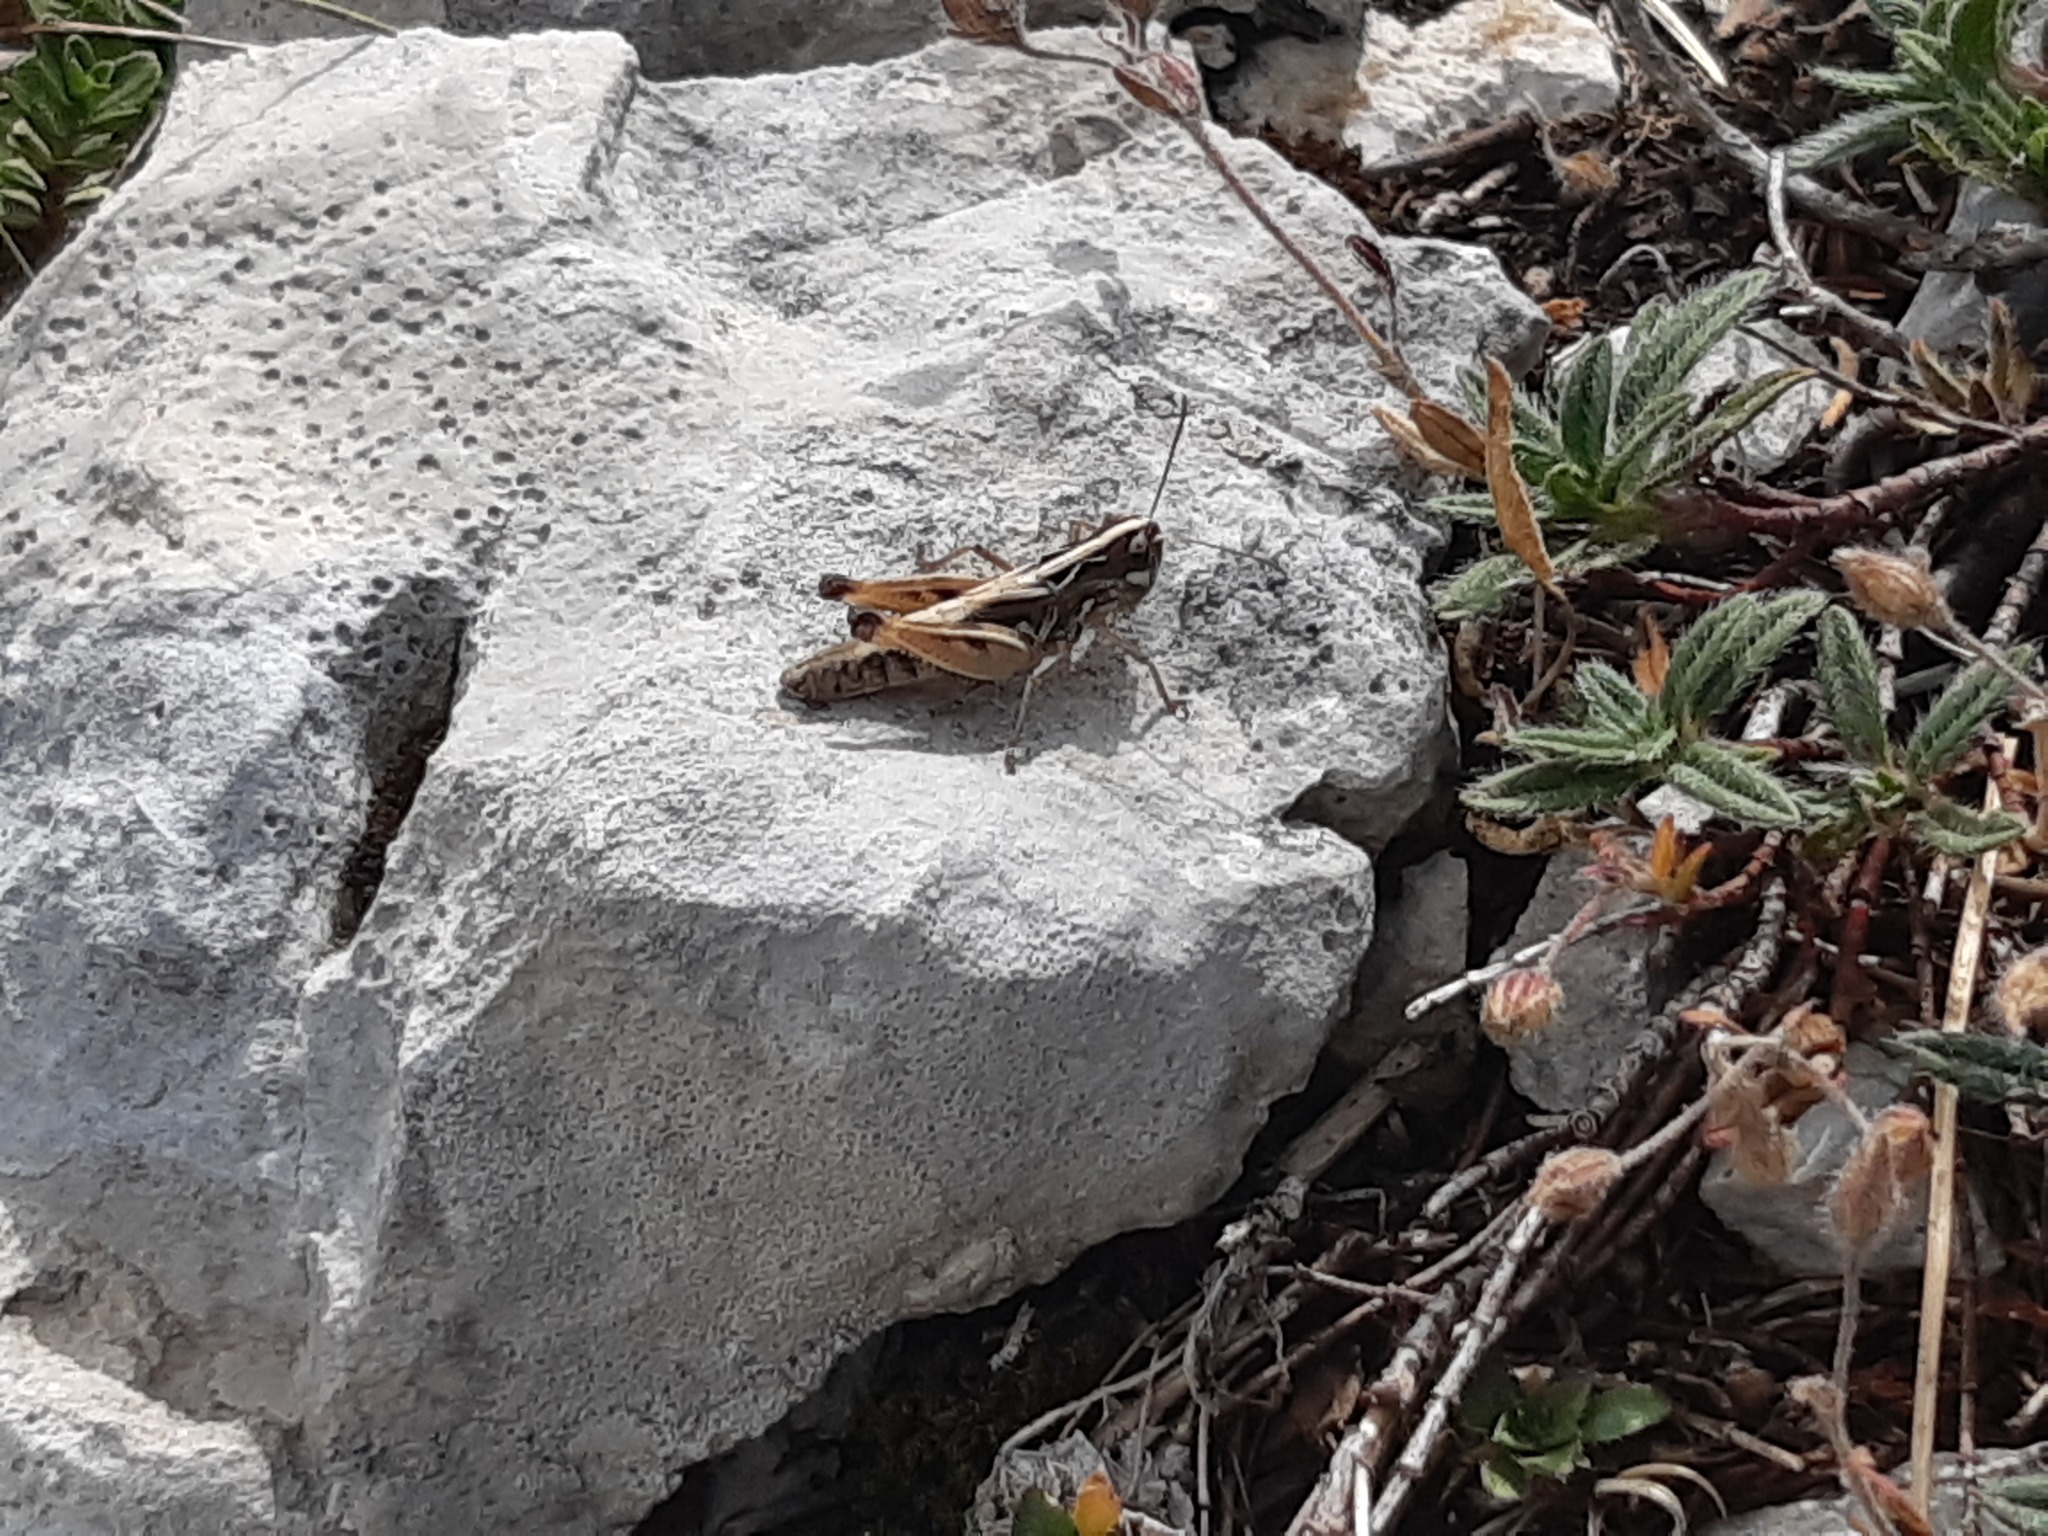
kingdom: Animalia
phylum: Arthropoda
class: Insecta
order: Orthoptera
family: Acrididae
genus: Rammeihippus
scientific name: Rammeihippus dinaricus
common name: Dinarian grasshopper
